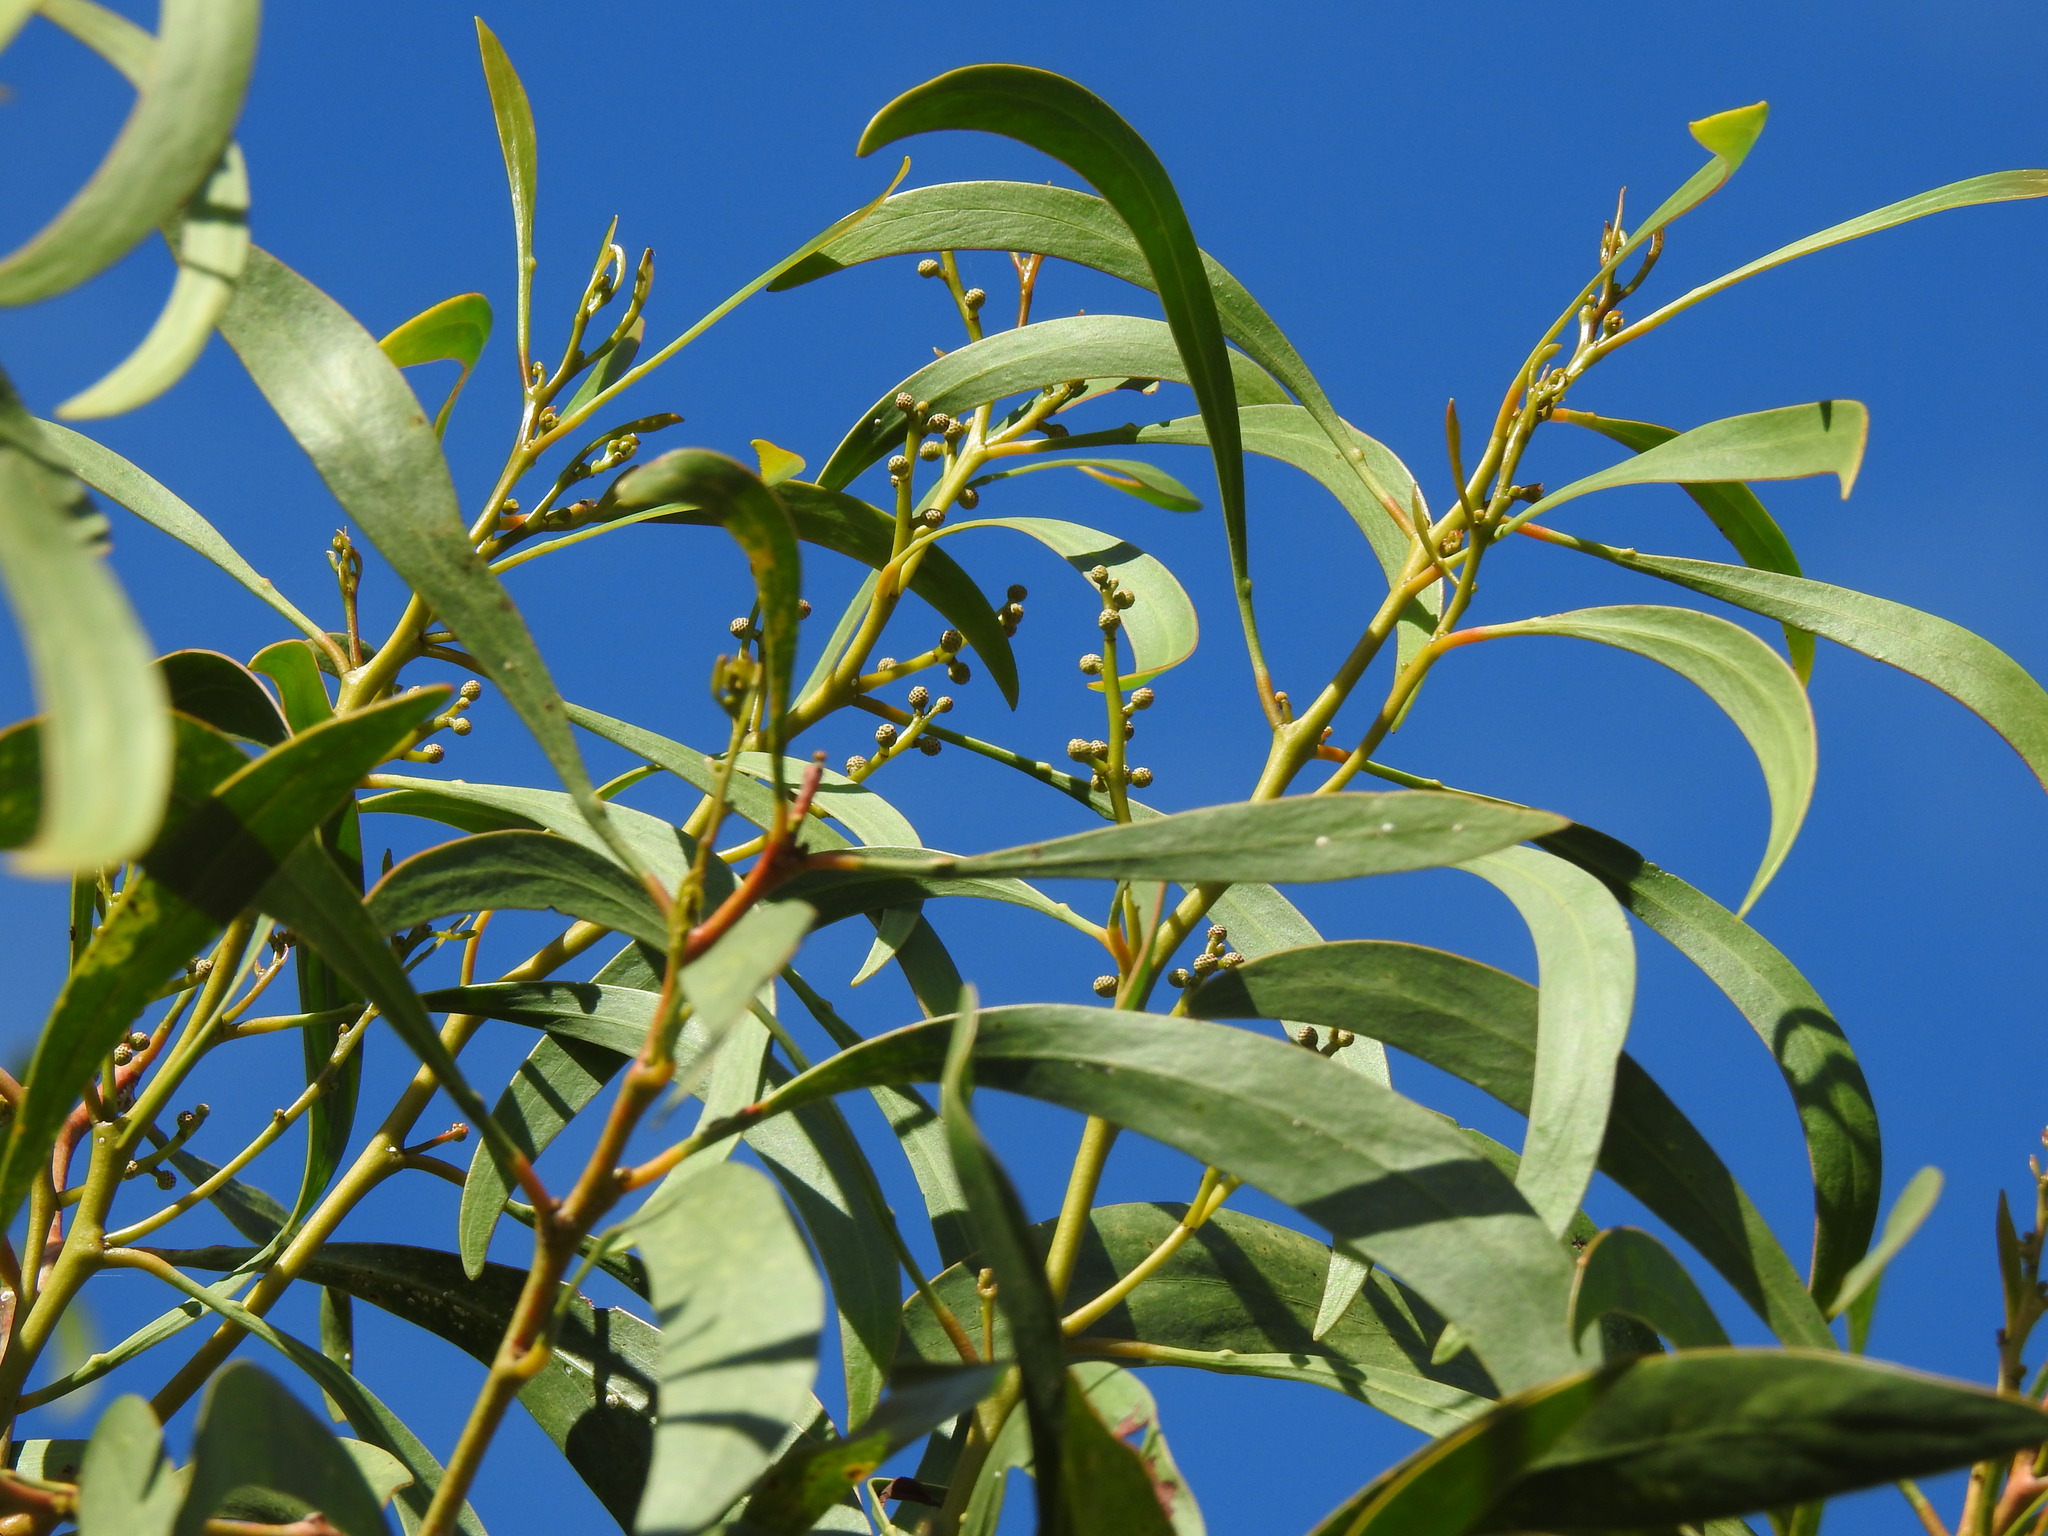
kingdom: Plantae
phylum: Tracheophyta
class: Magnoliopsida
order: Fabales
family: Fabaceae
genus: Acacia
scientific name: Acacia pycnantha
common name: Golden wattle
